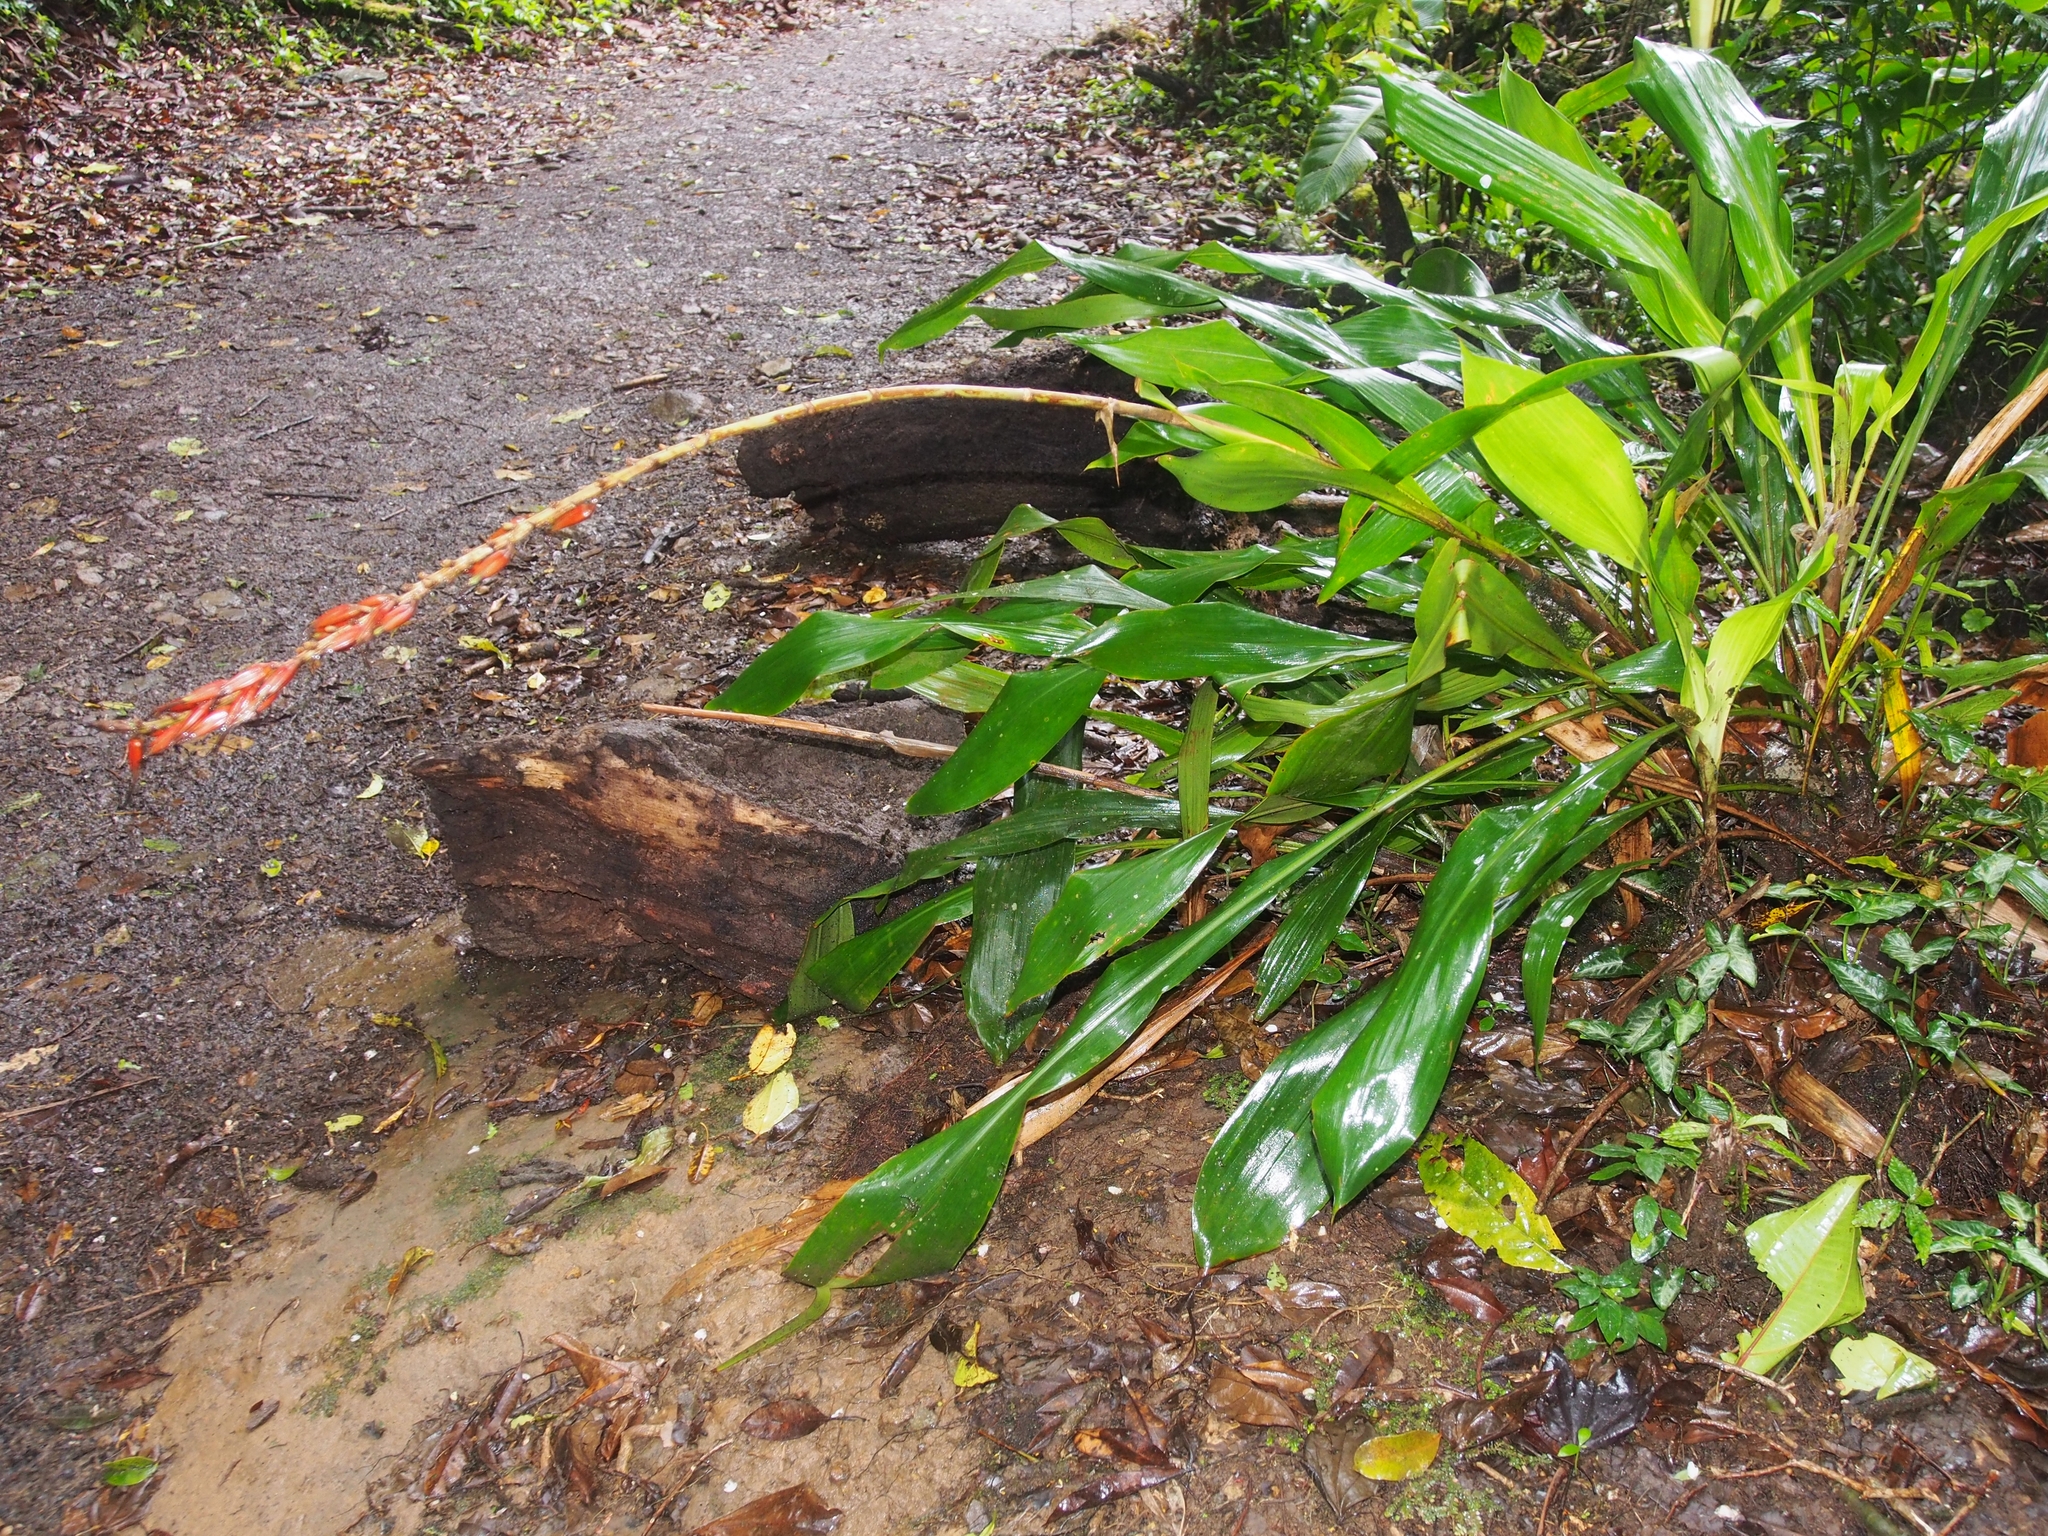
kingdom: Plantae
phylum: Tracheophyta
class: Liliopsida
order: Poales
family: Bromeliaceae
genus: Pitcairnia
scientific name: Pitcairnia brittoniana
